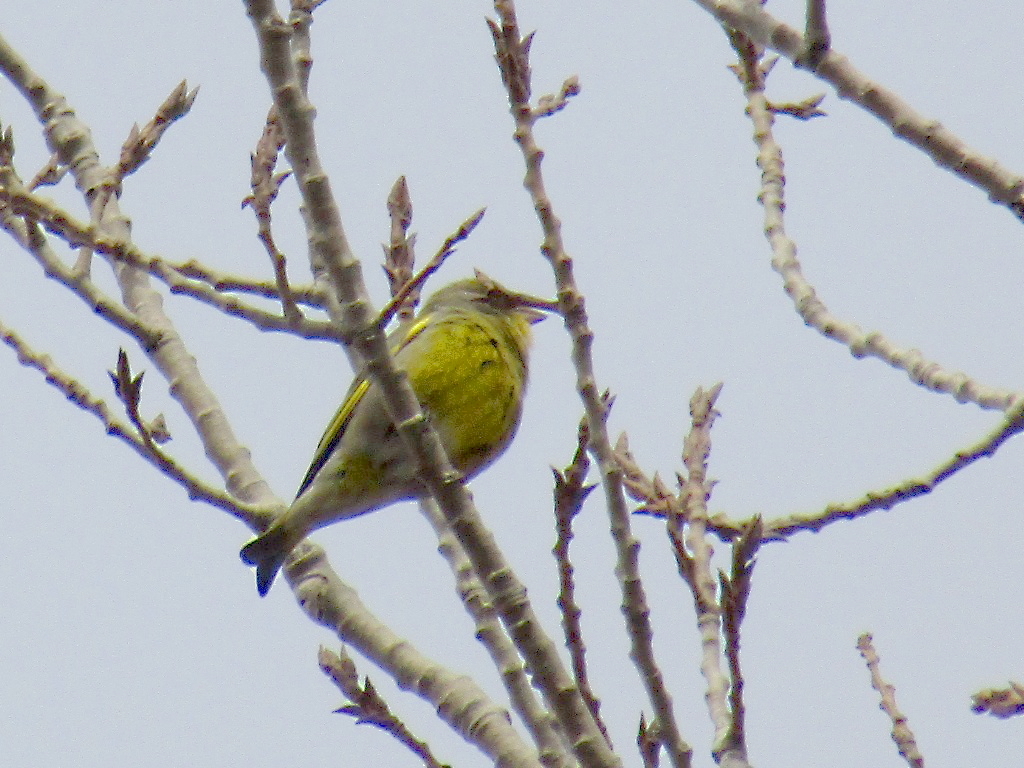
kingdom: Plantae
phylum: Tracheophyta
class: Liliopsida
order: Poales
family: Poaceae
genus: Chloris
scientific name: Chloris chloris
